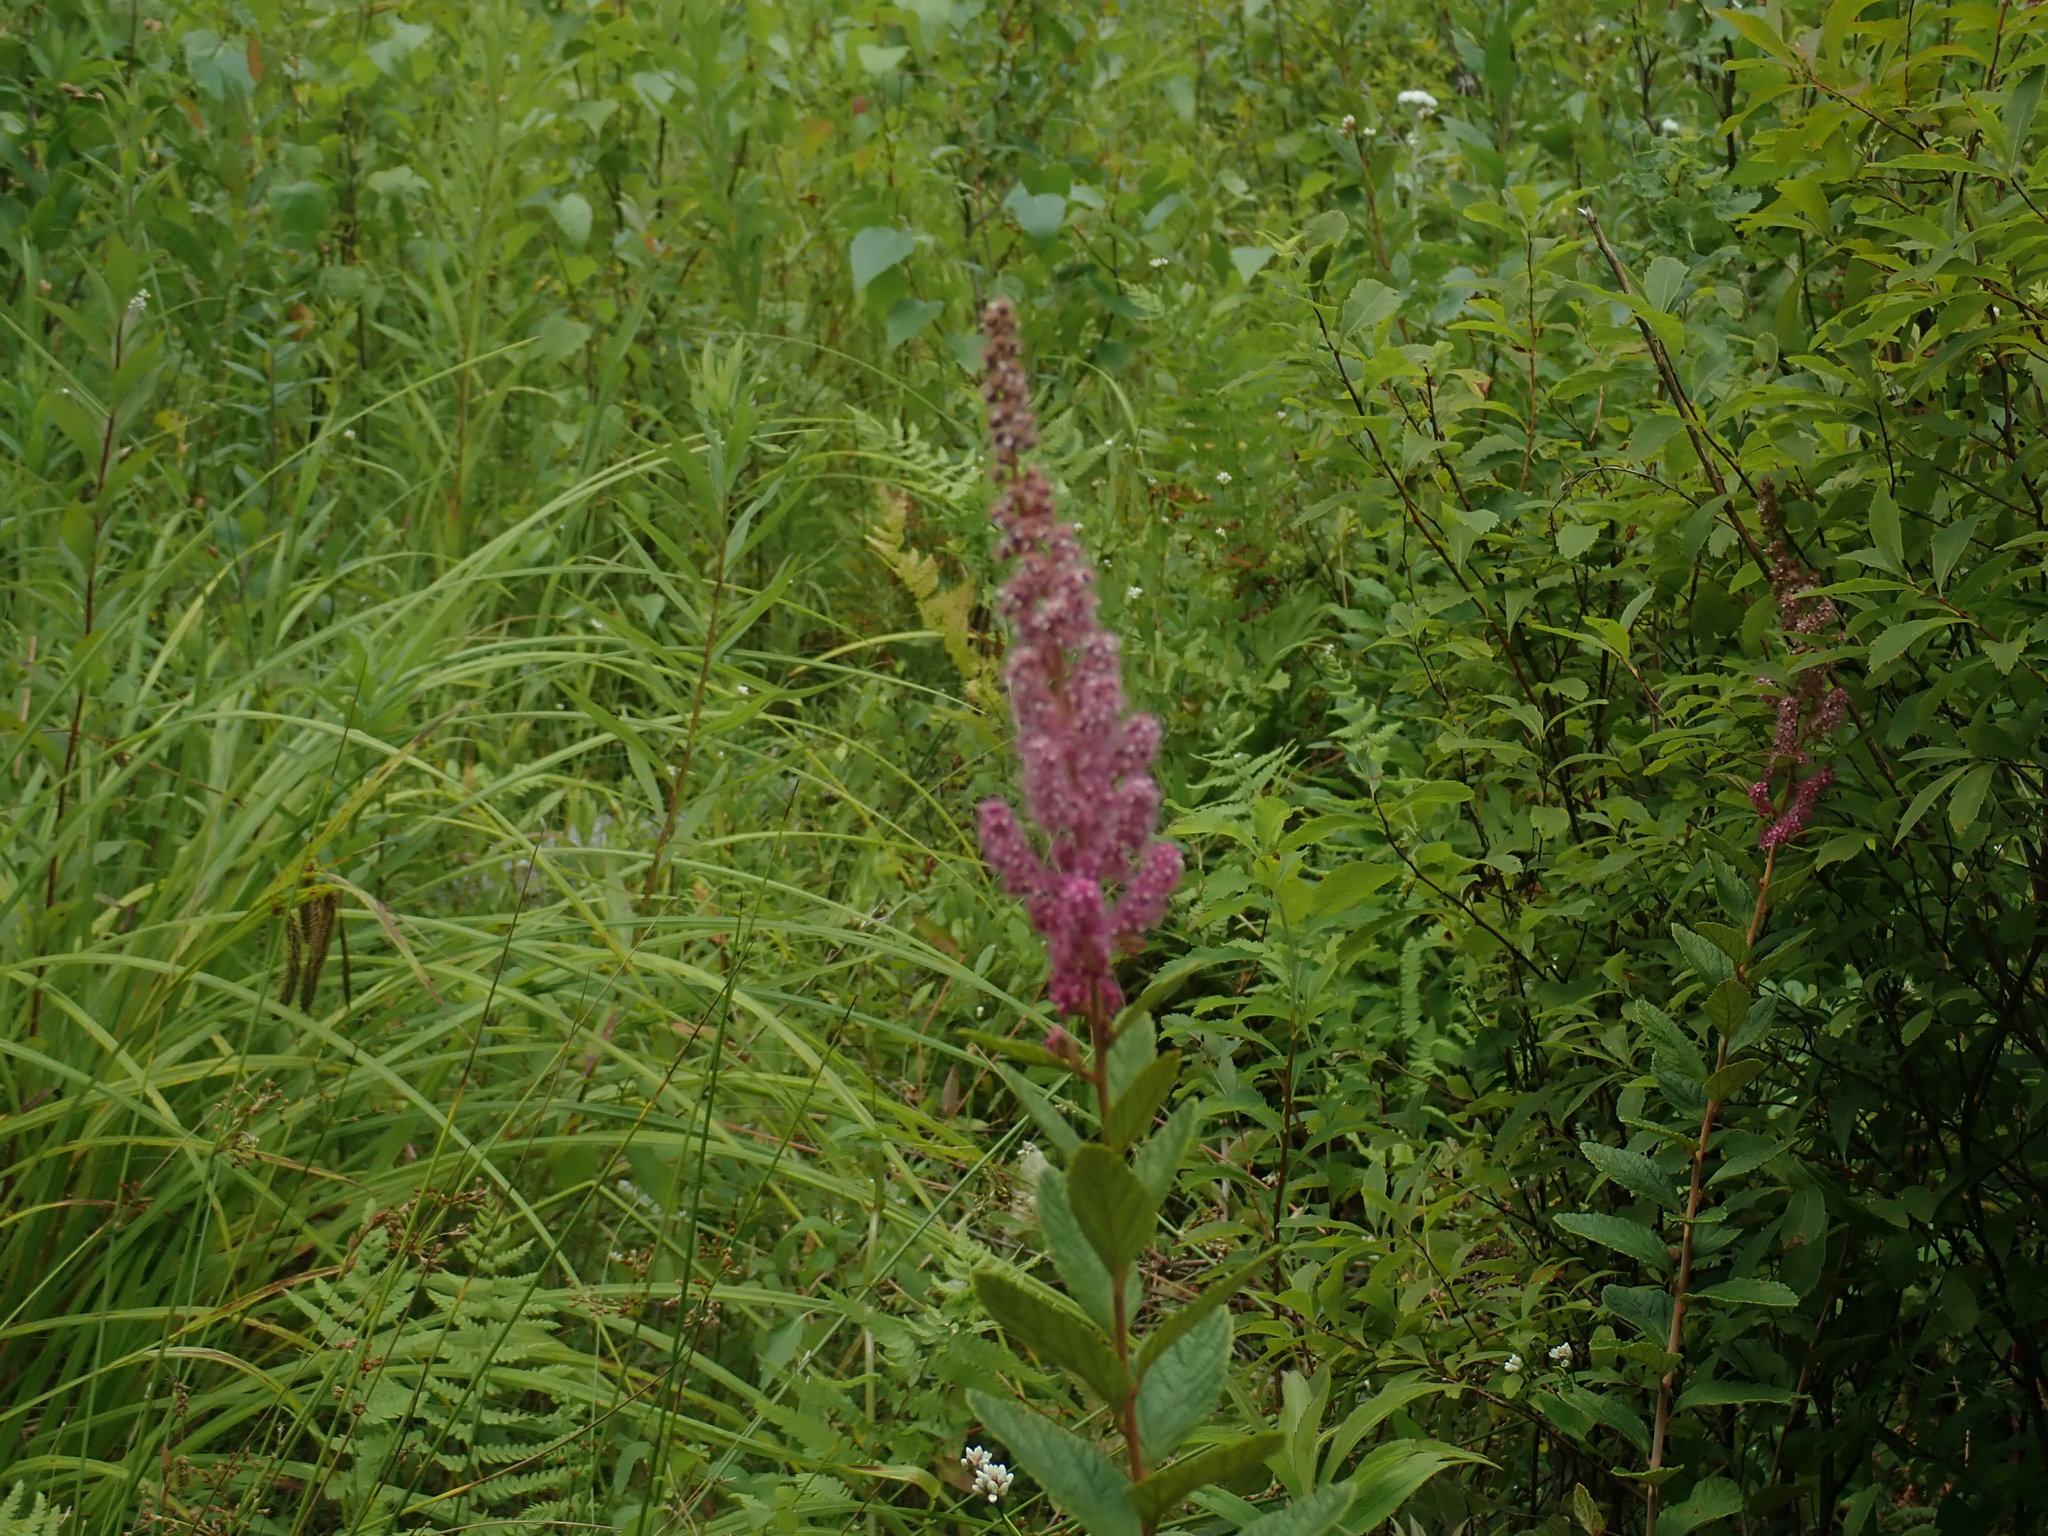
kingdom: Plantae
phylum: Tracheophyta
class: Magnoliopsida
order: Rosales
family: Rosaceae
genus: Spiraea
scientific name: Spiraea tomentosa
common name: Hardhack
